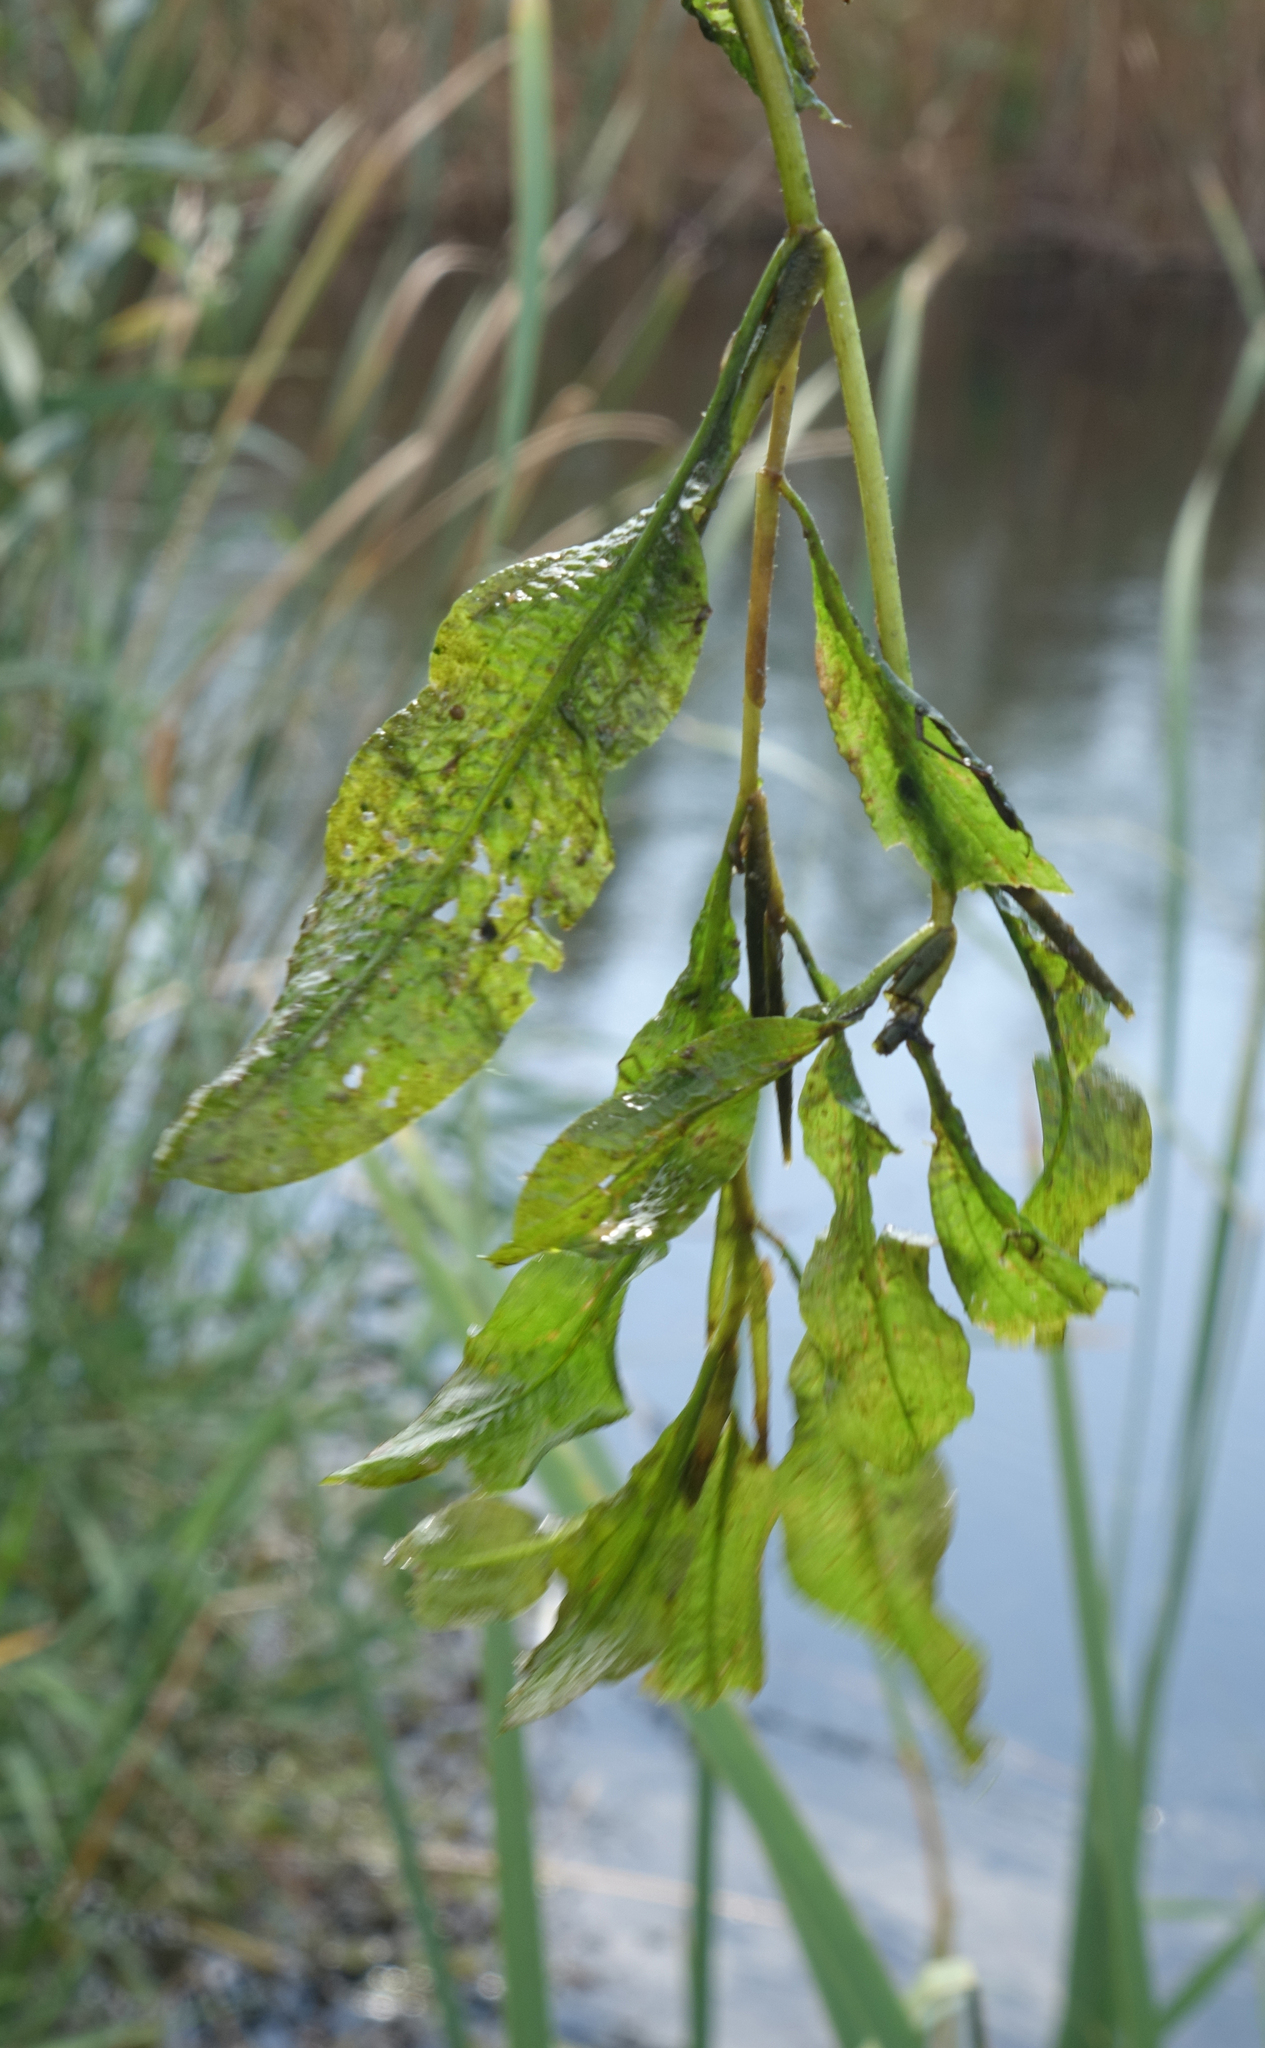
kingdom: Plantae
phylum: Tracheophyta
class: Liliopsida
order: Alismatales
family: Potamogetonaceae
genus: Potamogeton
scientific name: Potamogeton lucens
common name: Shining pondweed
